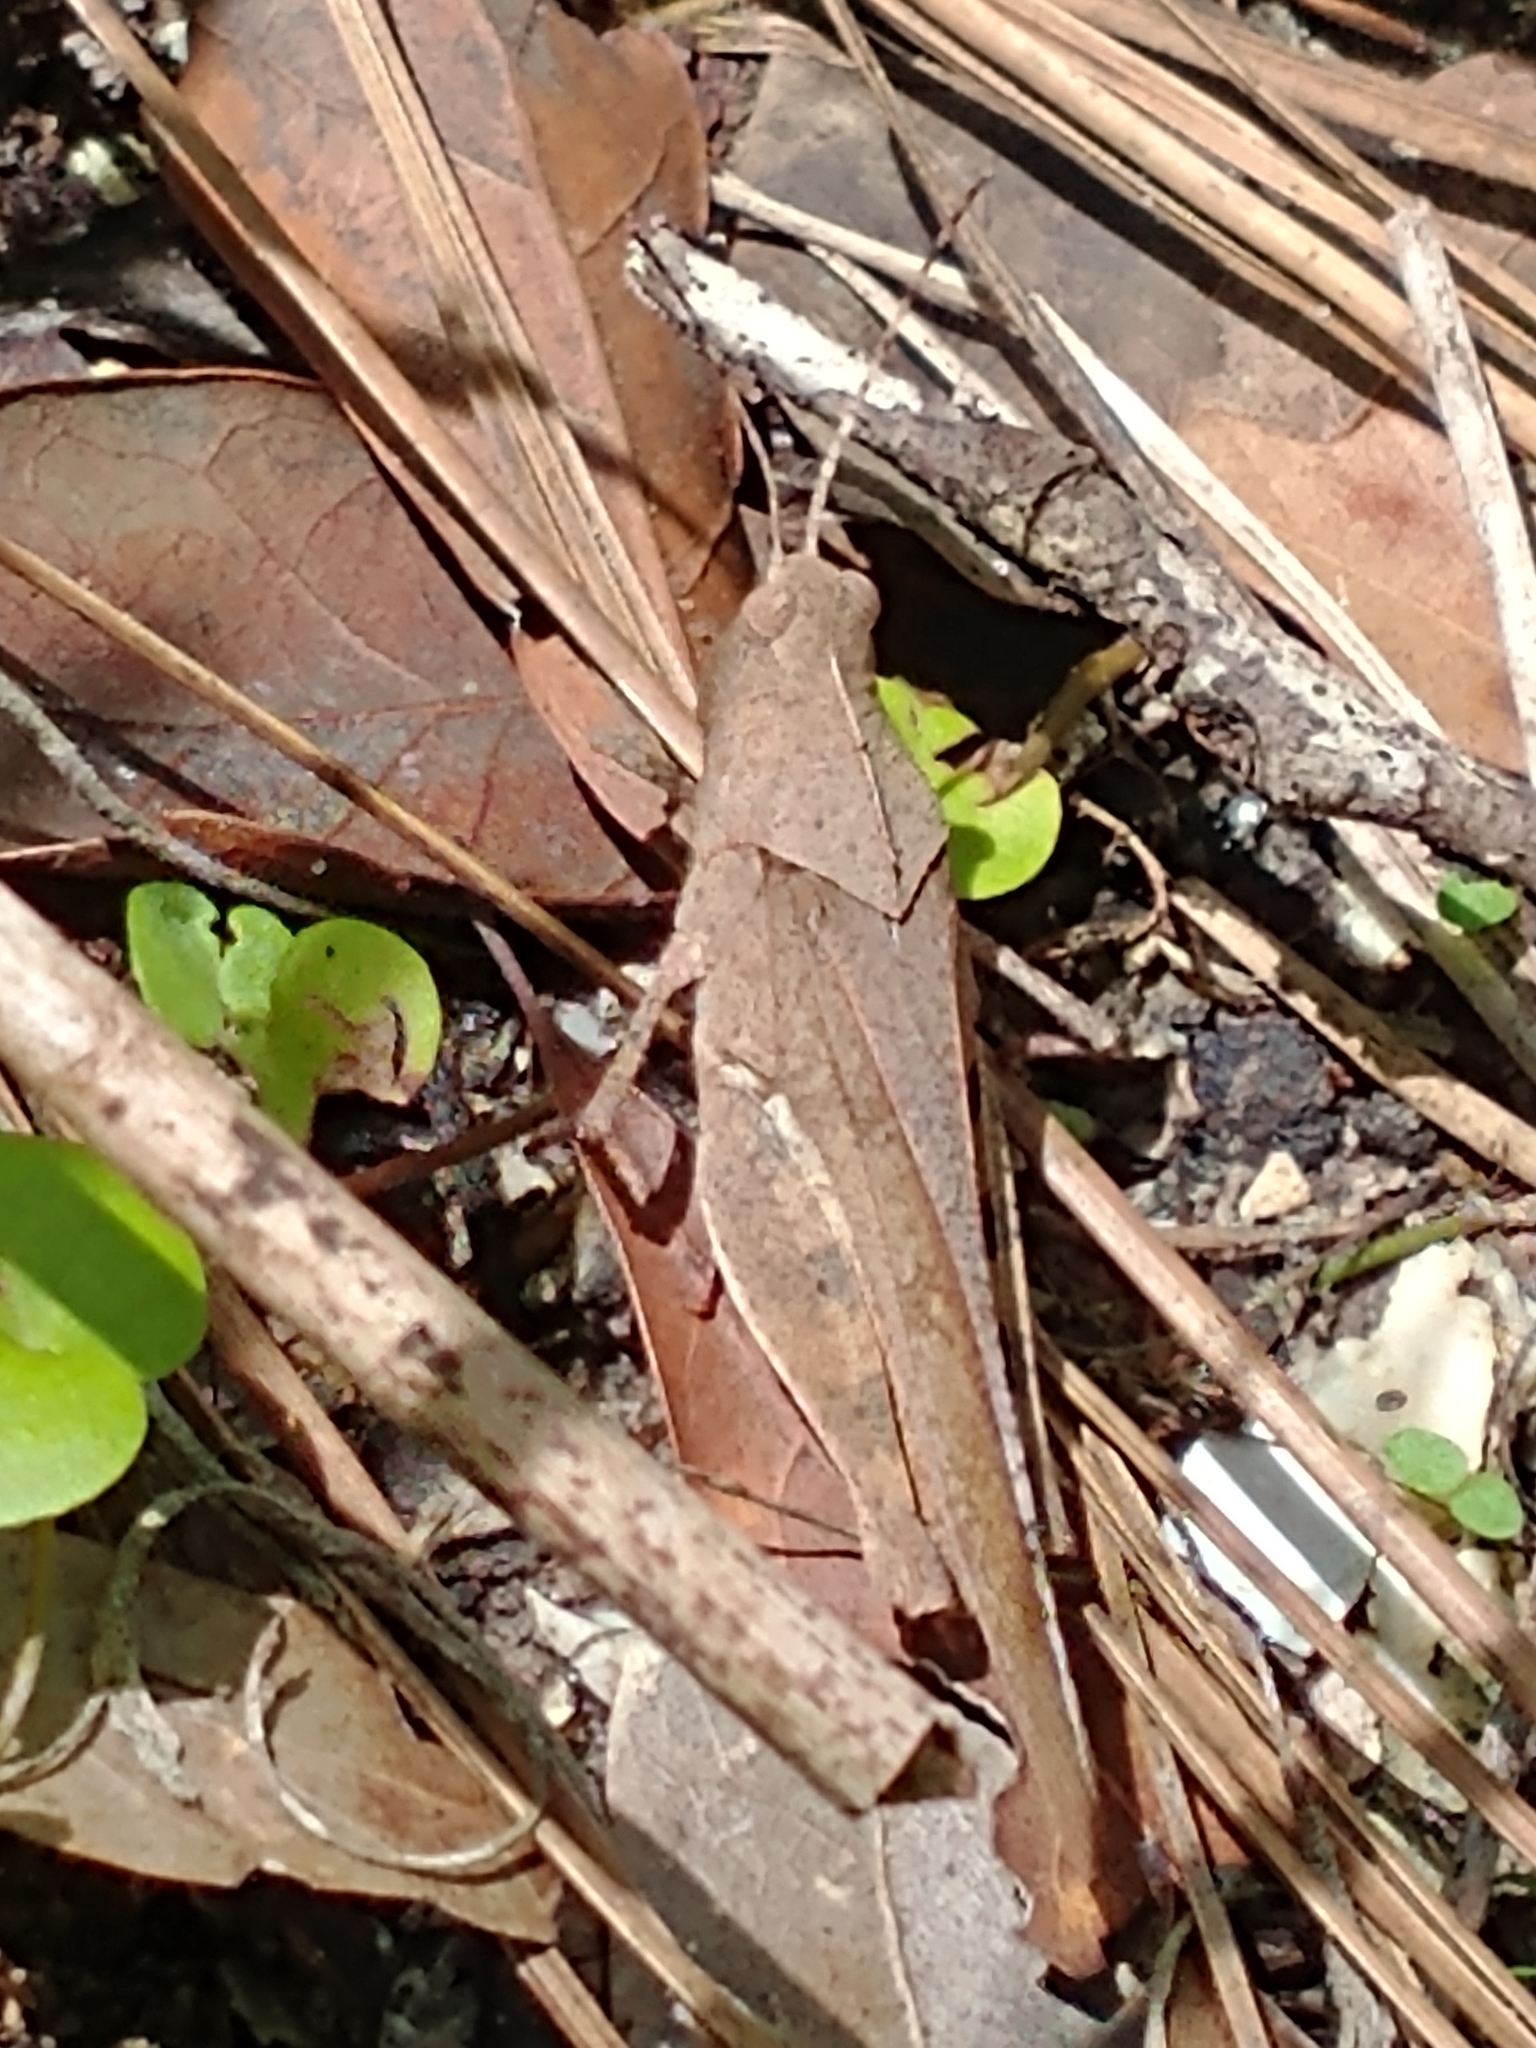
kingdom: Animalia
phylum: Arthropoda
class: Insecta
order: Orthoptera
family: Acrididae
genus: Spharagemon
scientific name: Spharagemon crepitans
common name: Crepitating grasshopper
